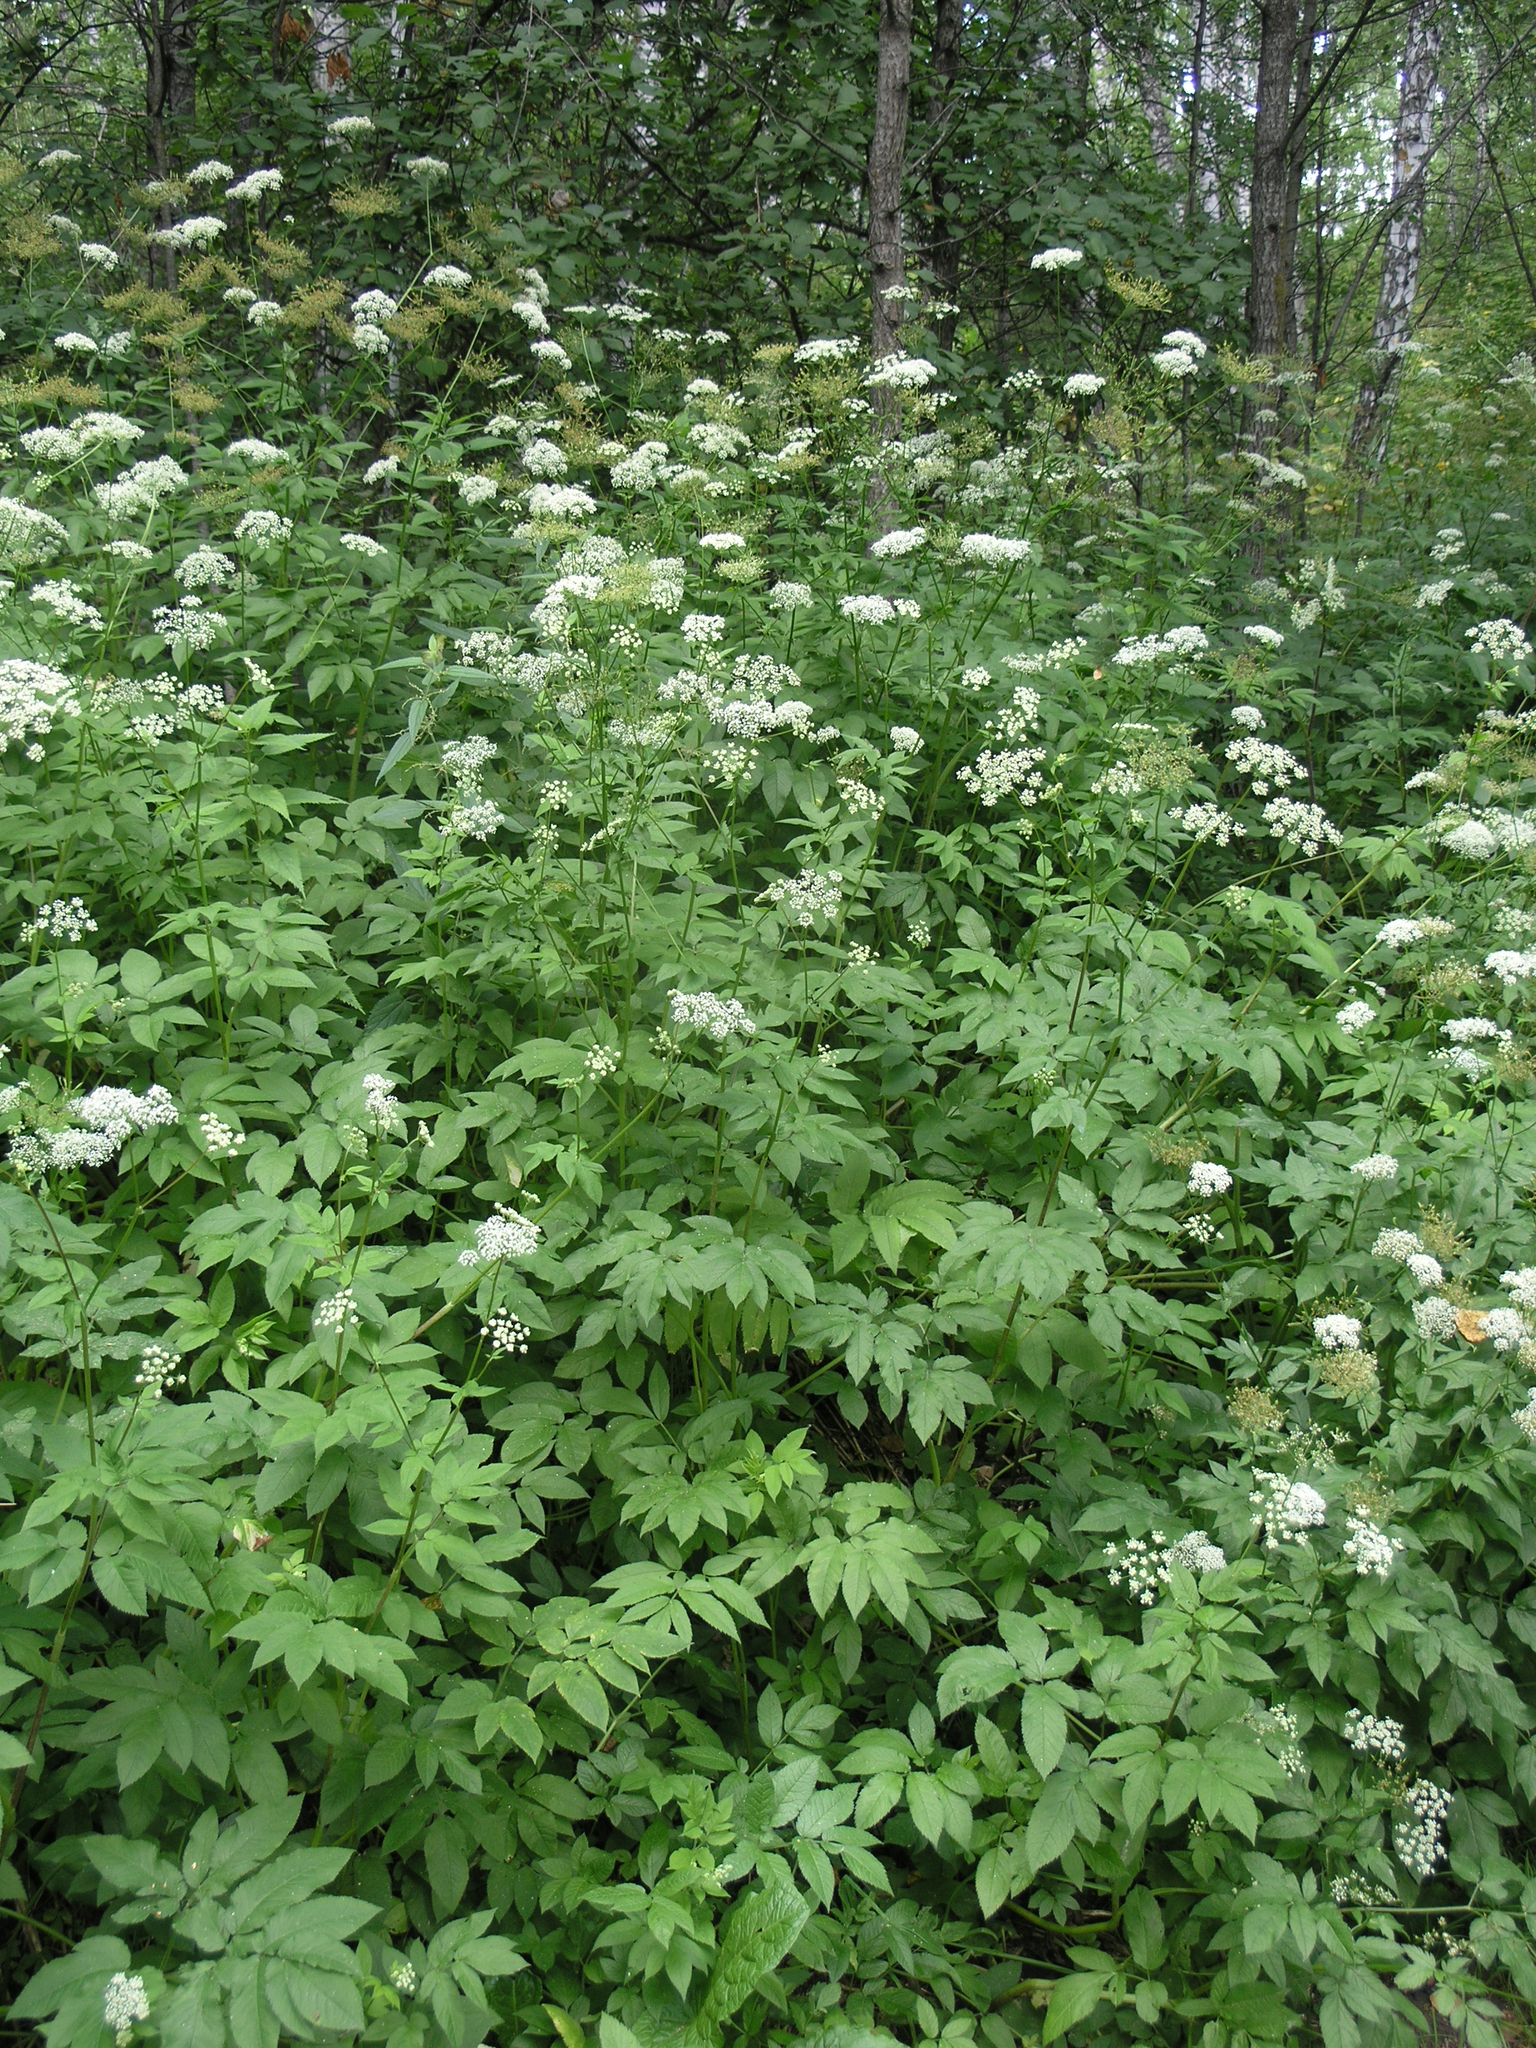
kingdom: Plantae
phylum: Tracheophyta
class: Magnoliopsida
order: Apiales
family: Apiaceae
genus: Aegopodium
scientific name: Aegopodium podagraria
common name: Ground-elder
